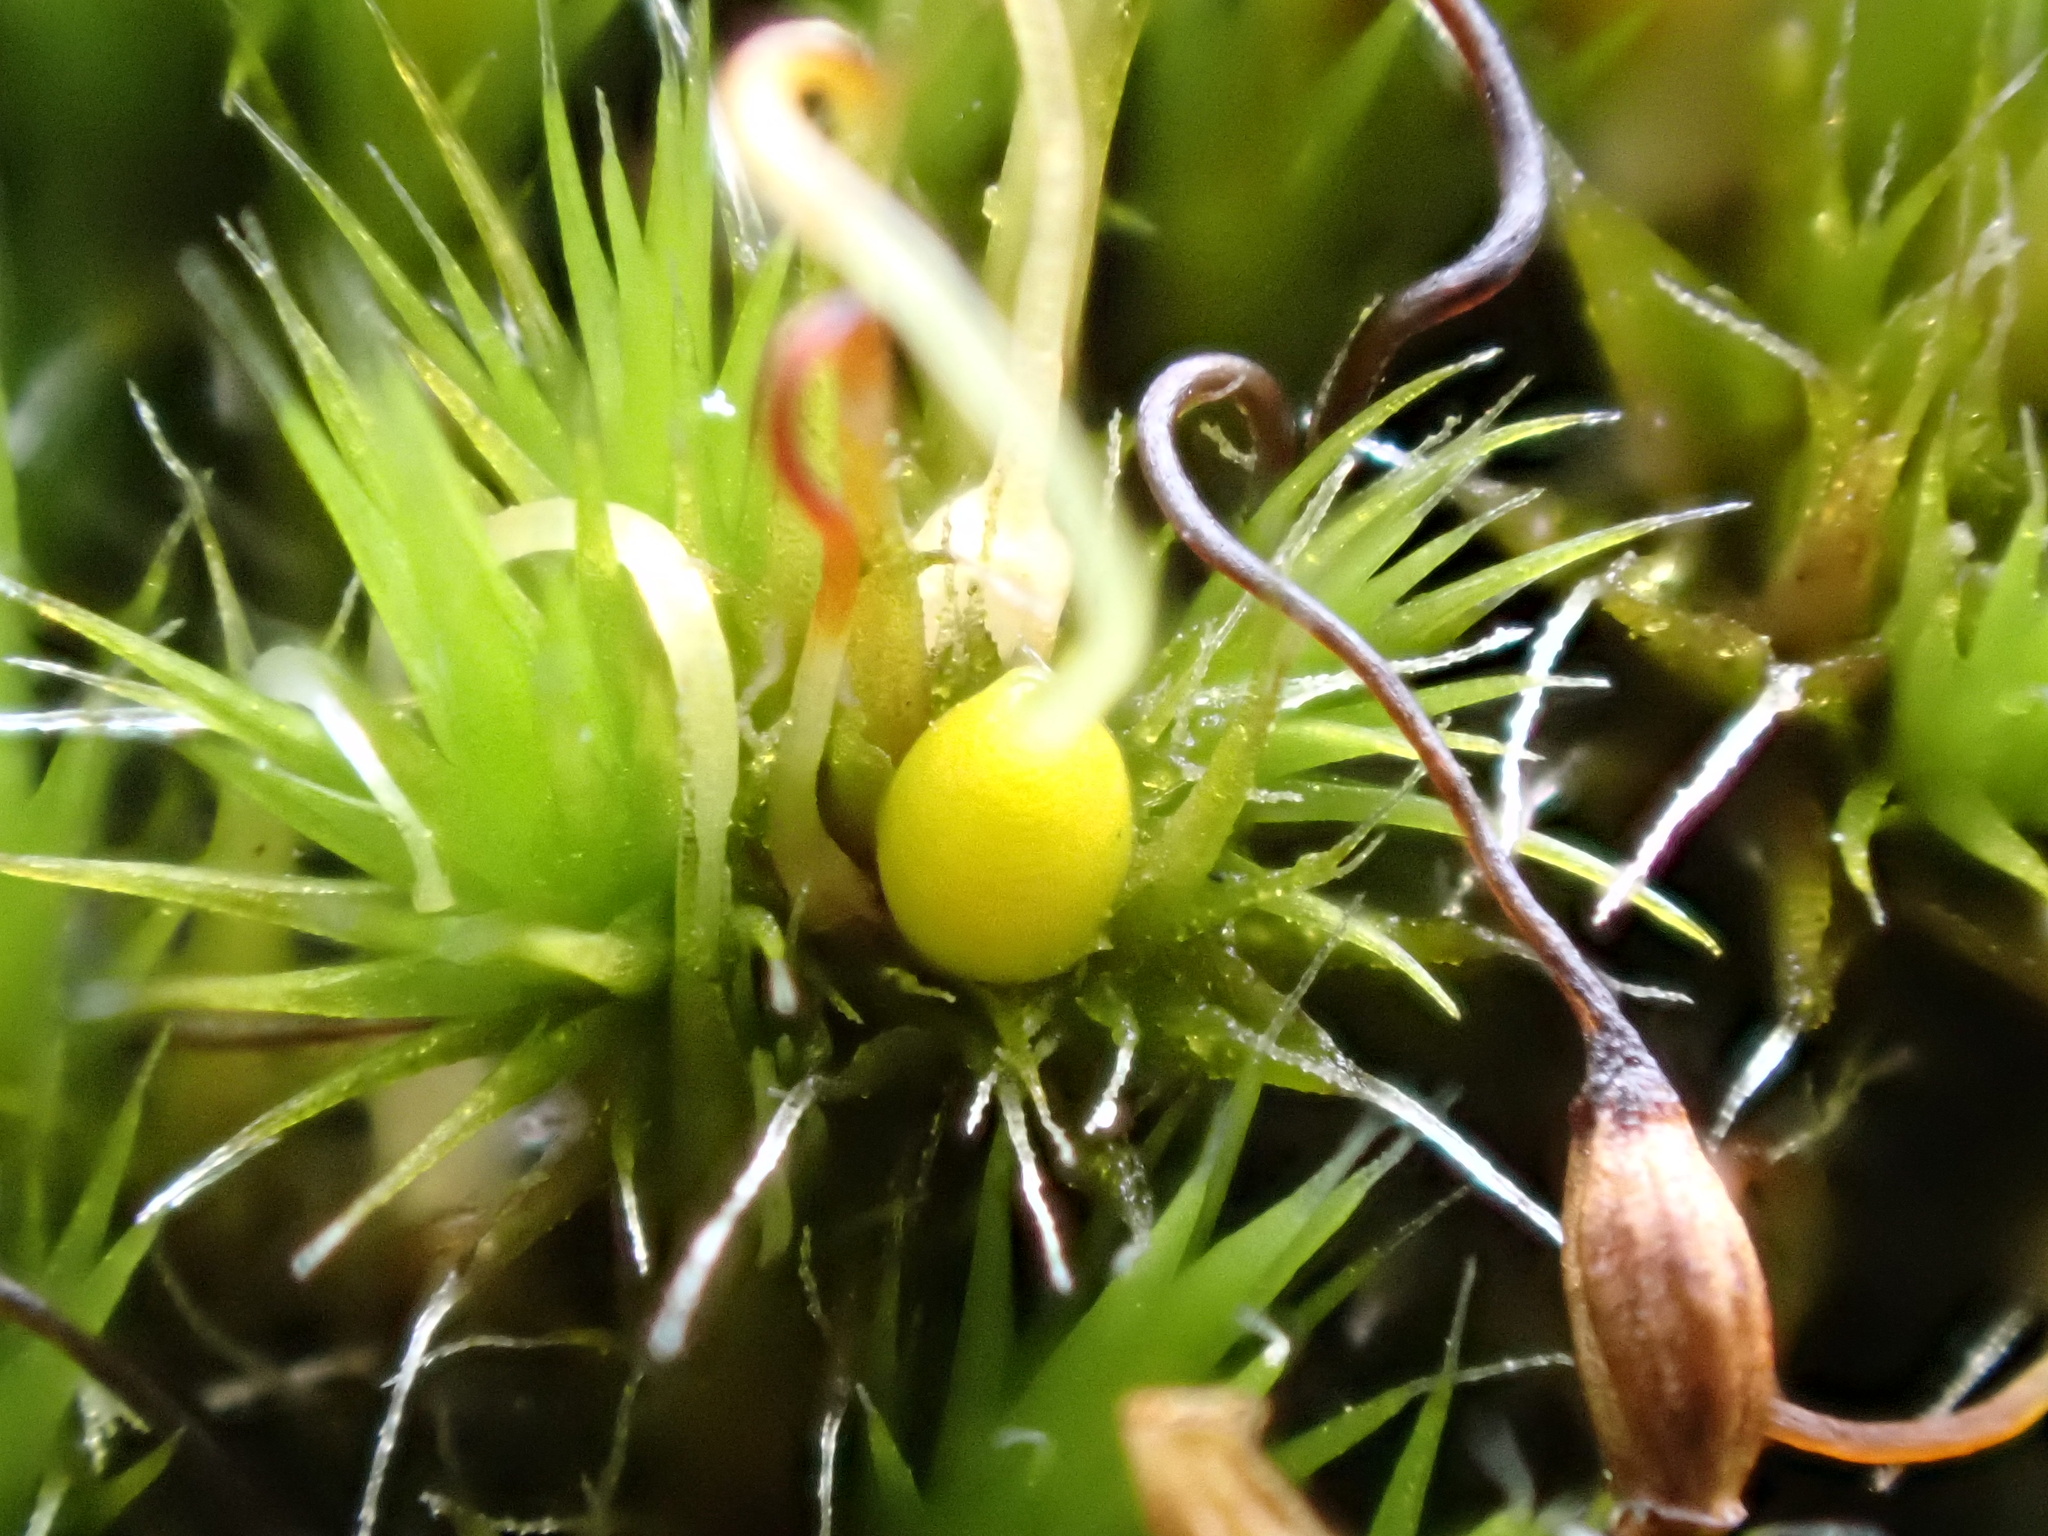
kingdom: Plantae
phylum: Bryophyta
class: Bryopsida
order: Dicranales
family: Leucobryaceae
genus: Campylopus
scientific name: Campylopus introflexus
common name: Heath star moss
